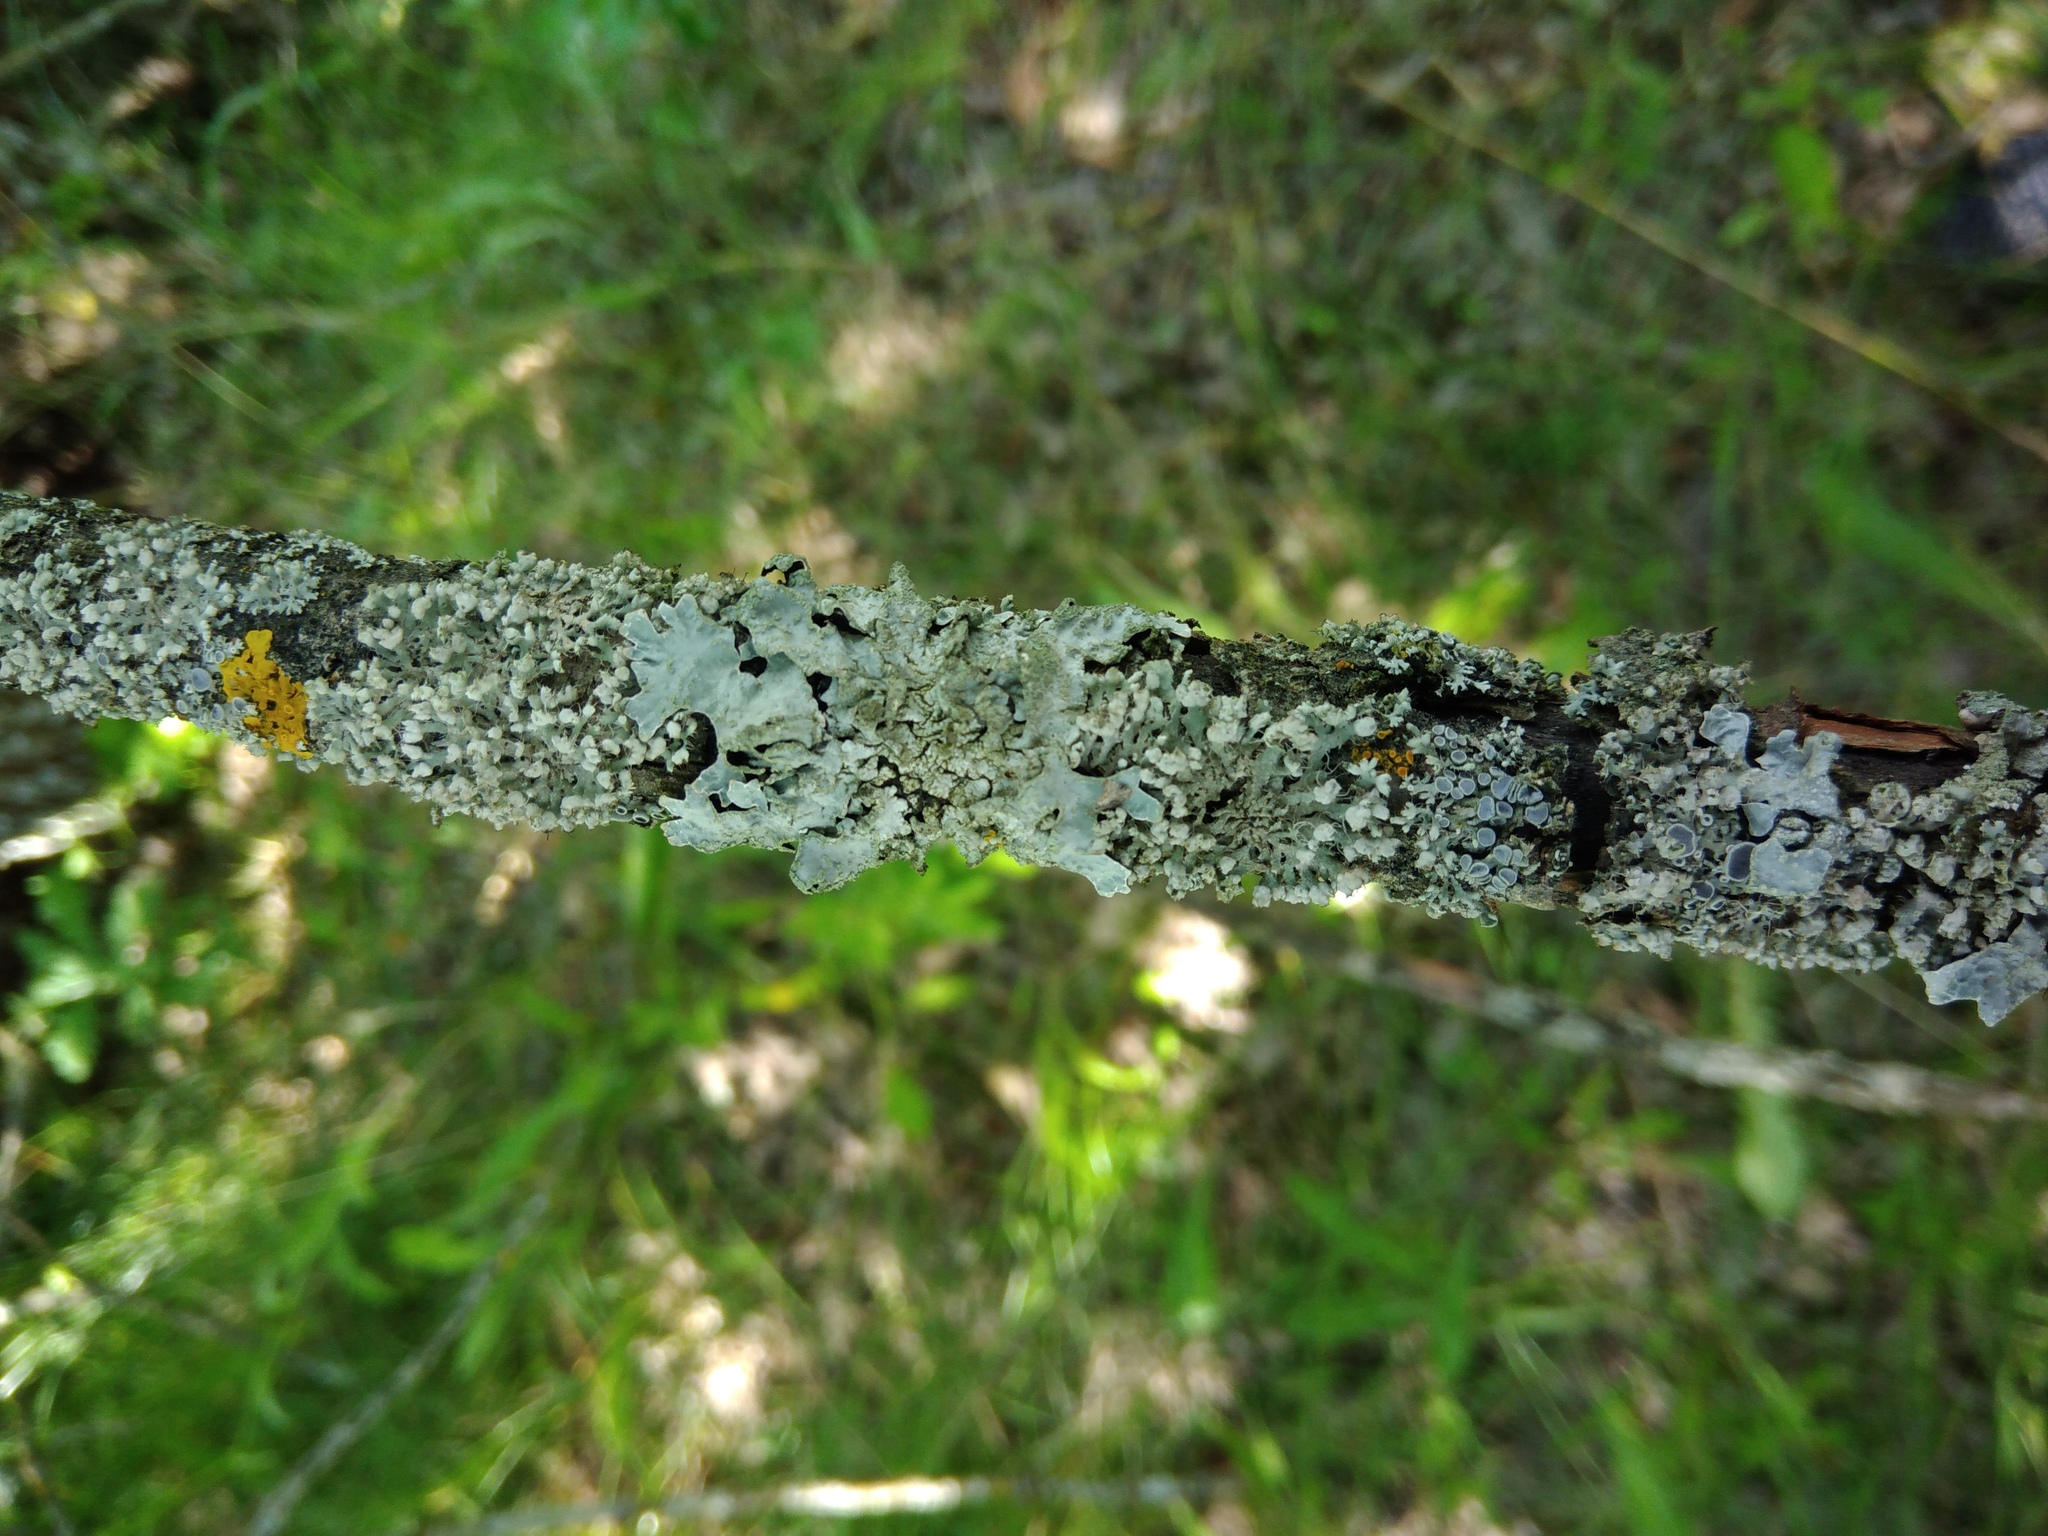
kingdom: Fungi
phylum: Ascomycota
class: Lecanoromycetes
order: Lecanorales
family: Parmeliaceae
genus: Parmelia
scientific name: Parmelia sulcata
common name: Netted shield lichen
